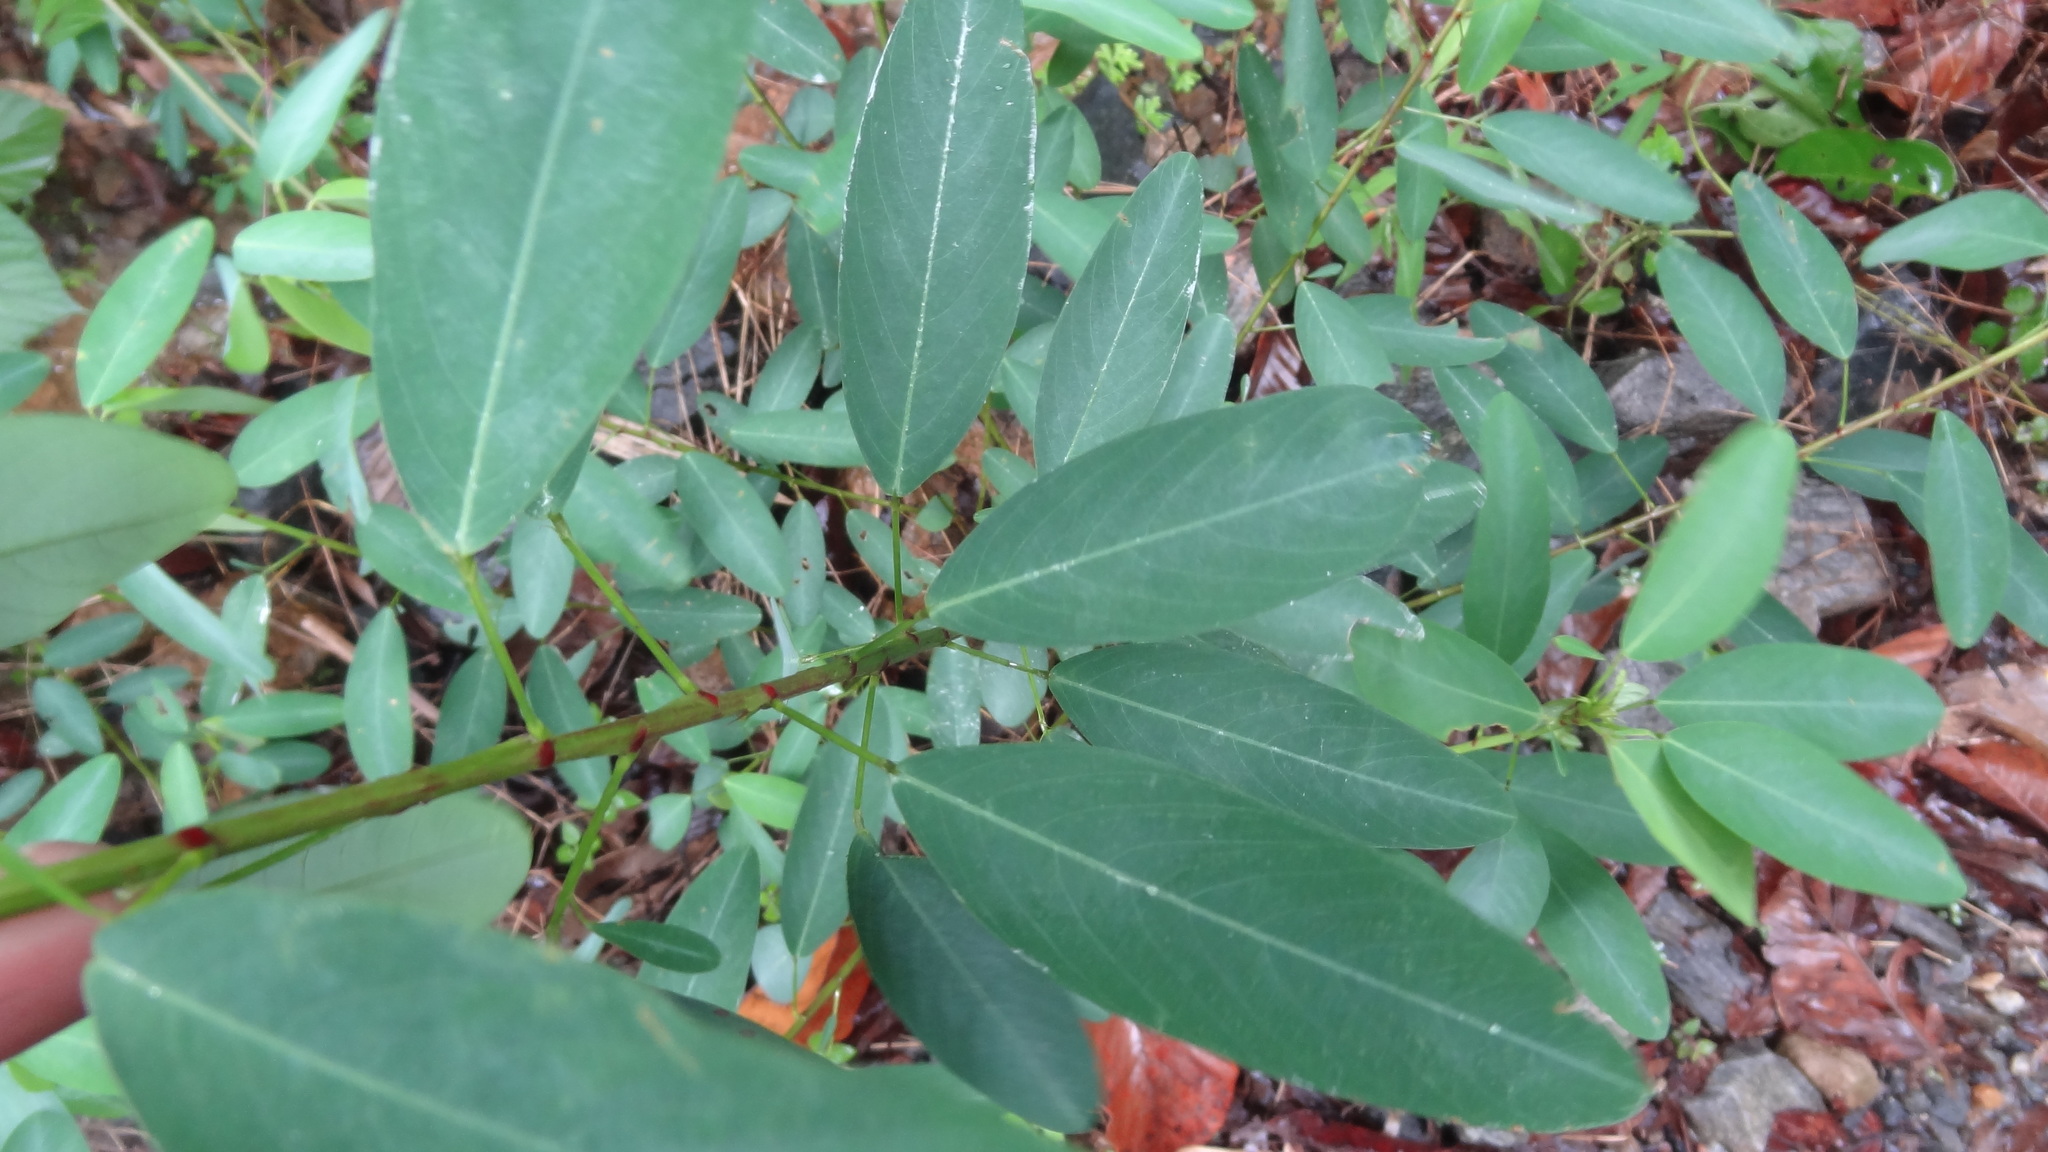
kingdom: Plantae
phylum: Tracheophyta
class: Magnoliopsida
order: Fabales
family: Fabaceae
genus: Codariocalyx
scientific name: Codariocalyx motorius
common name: Telegraph-plant
